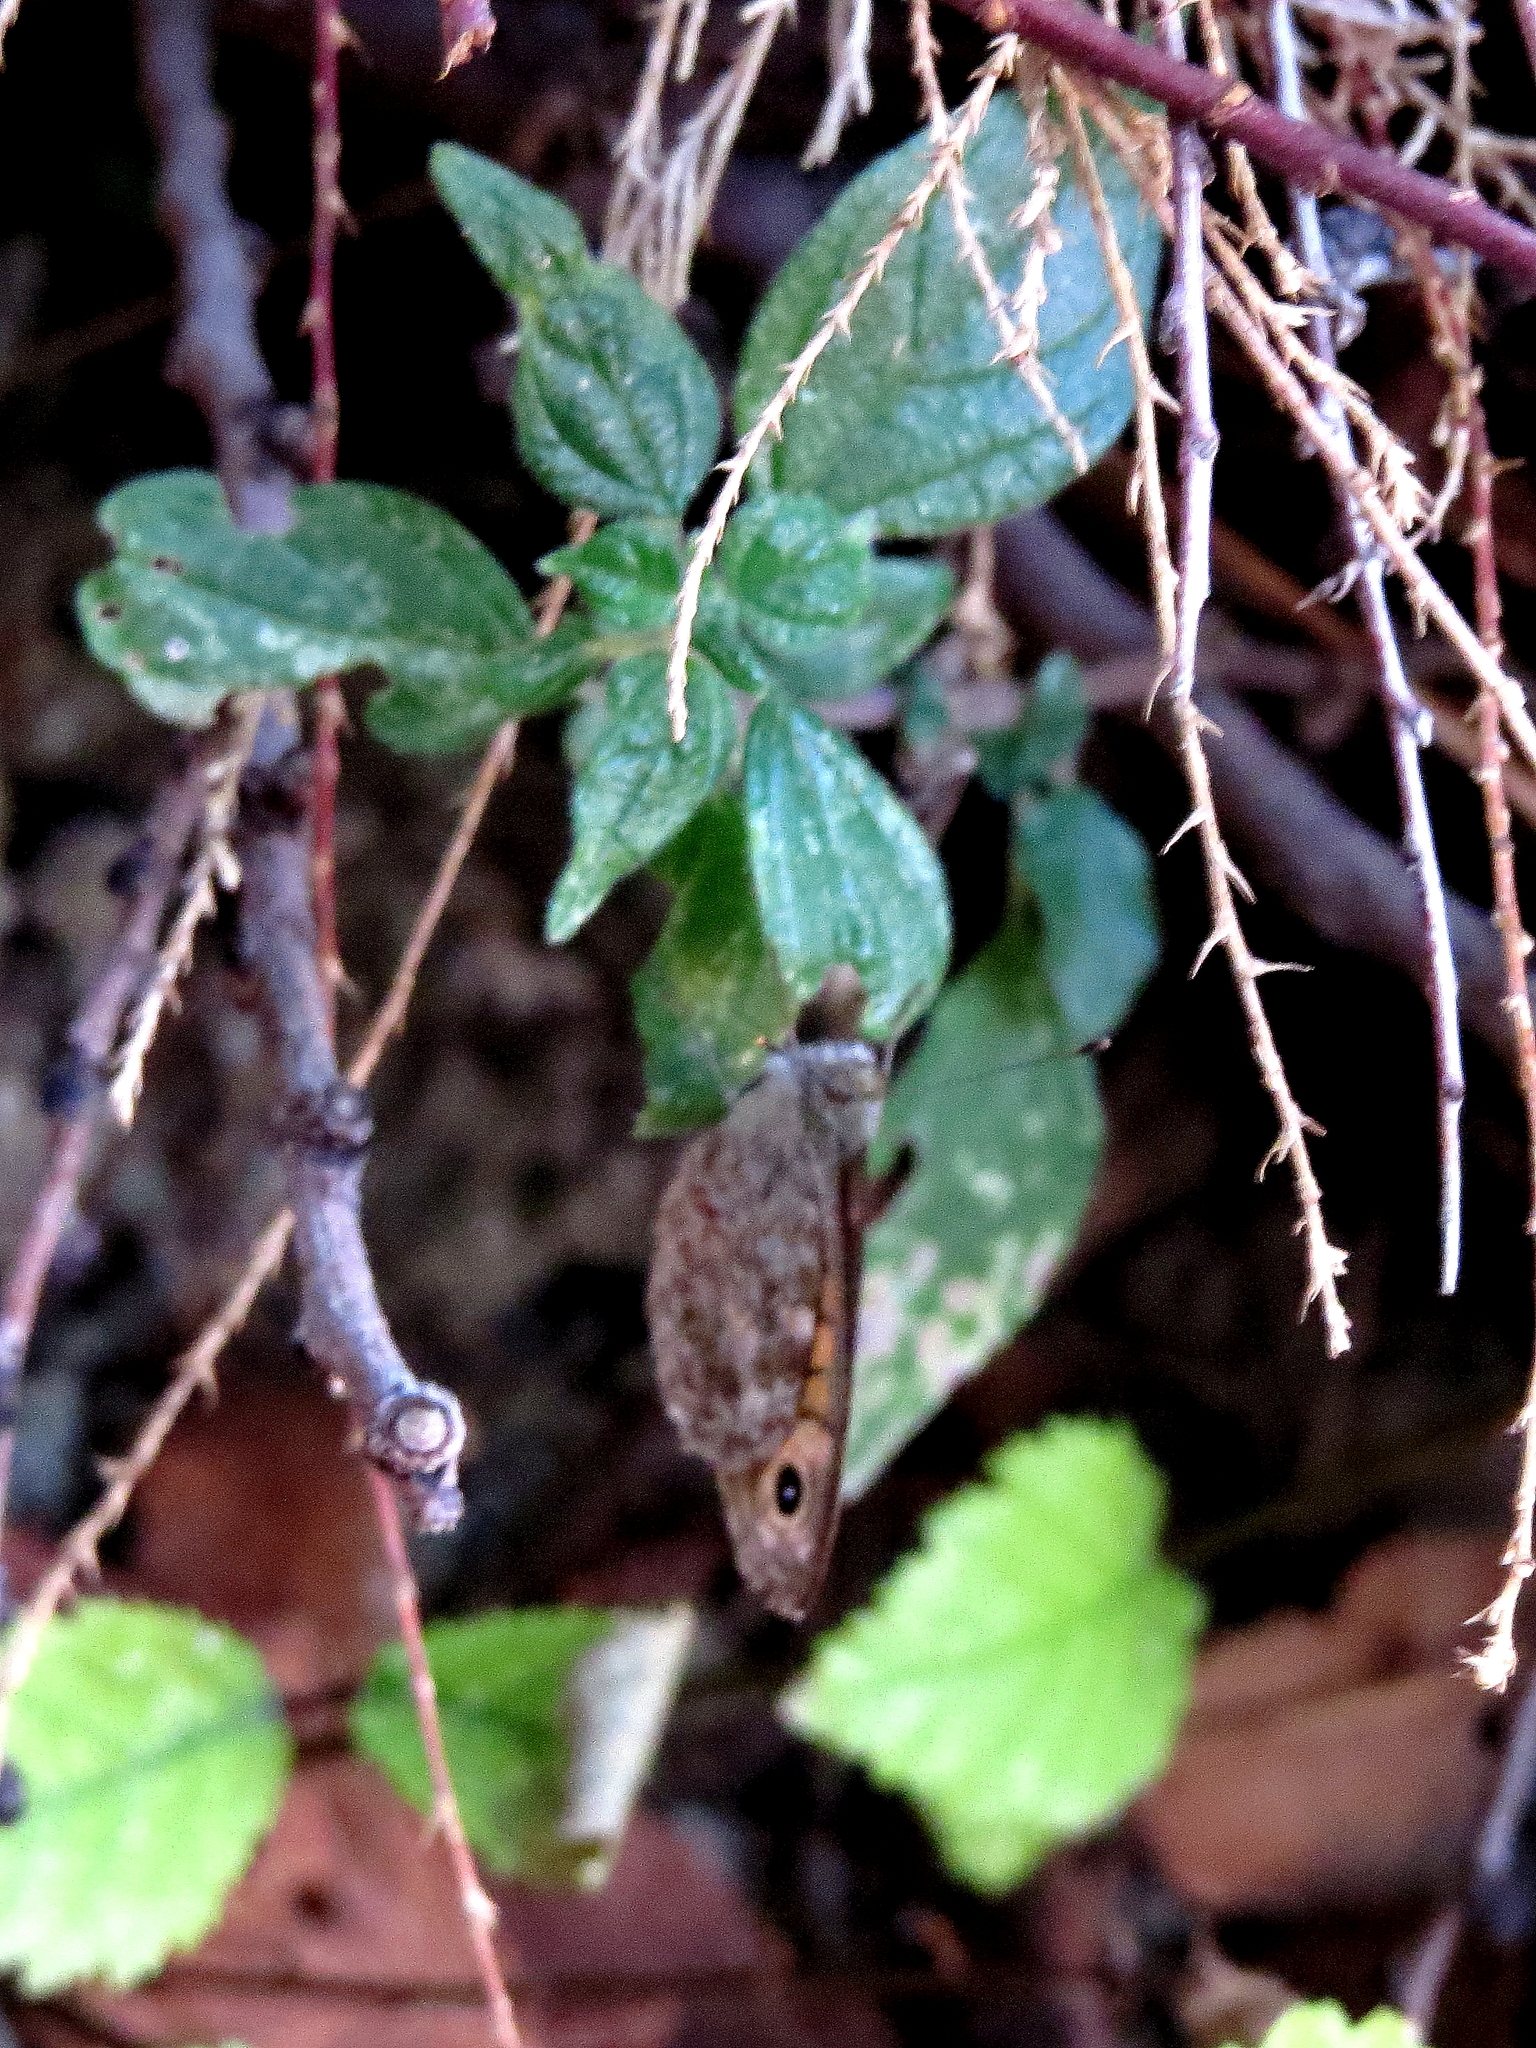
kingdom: Animalia
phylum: Arthropoda
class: Insecta
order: Lepidoptera
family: Nymphalidae
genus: Pararge
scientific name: Pararge Lasiommata megera
